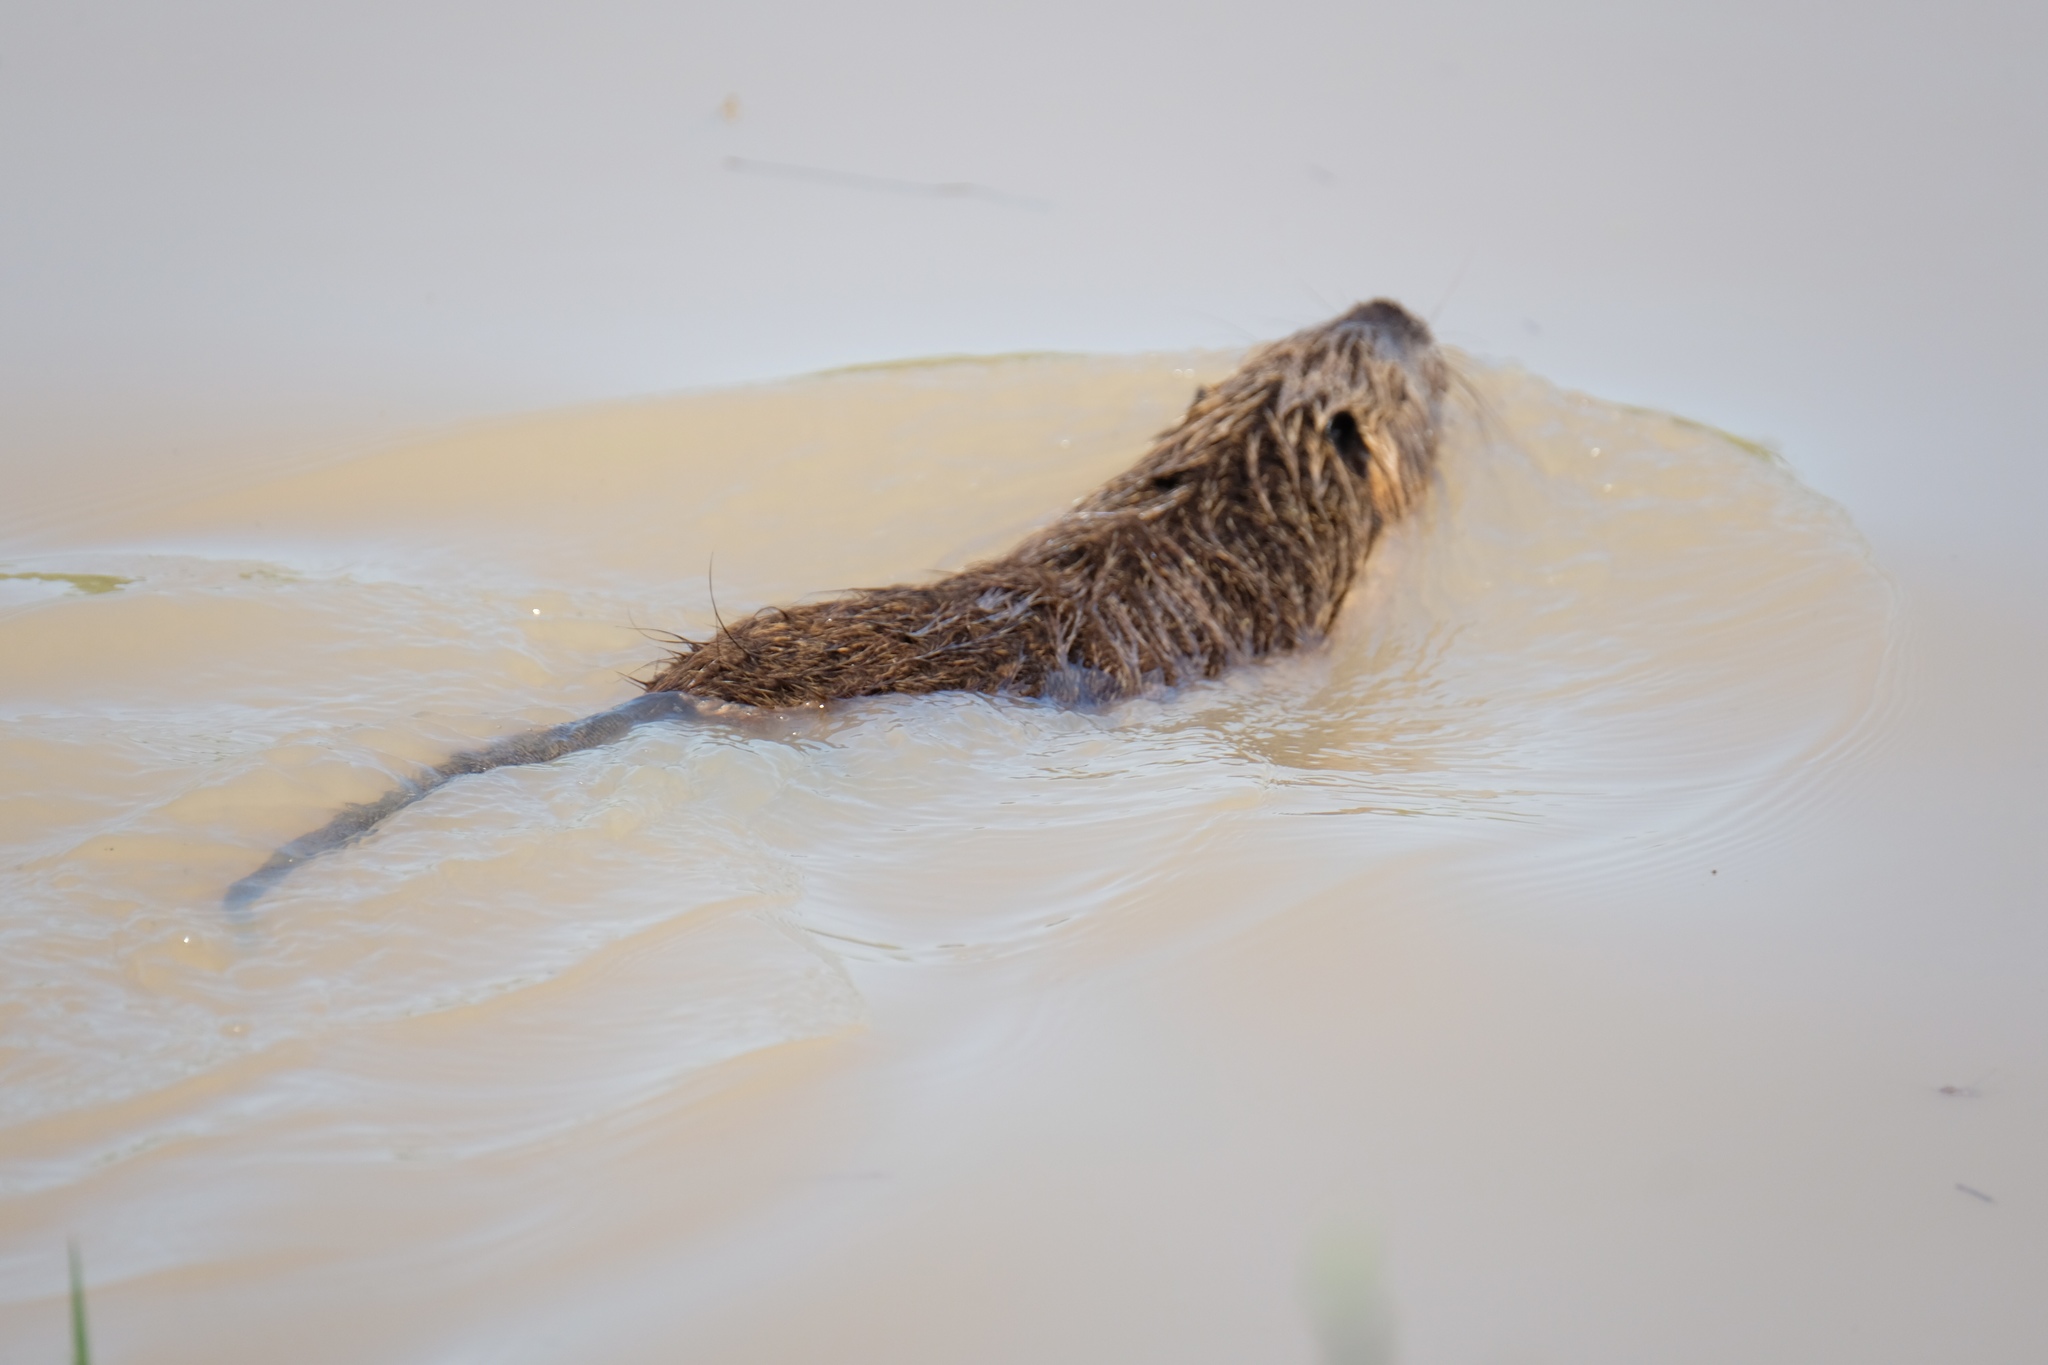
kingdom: Animalia
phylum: Chordata
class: Mammalia
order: Rodentia
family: Myocastoridae
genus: Myocastor
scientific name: Myocastor coypus
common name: Coypu
